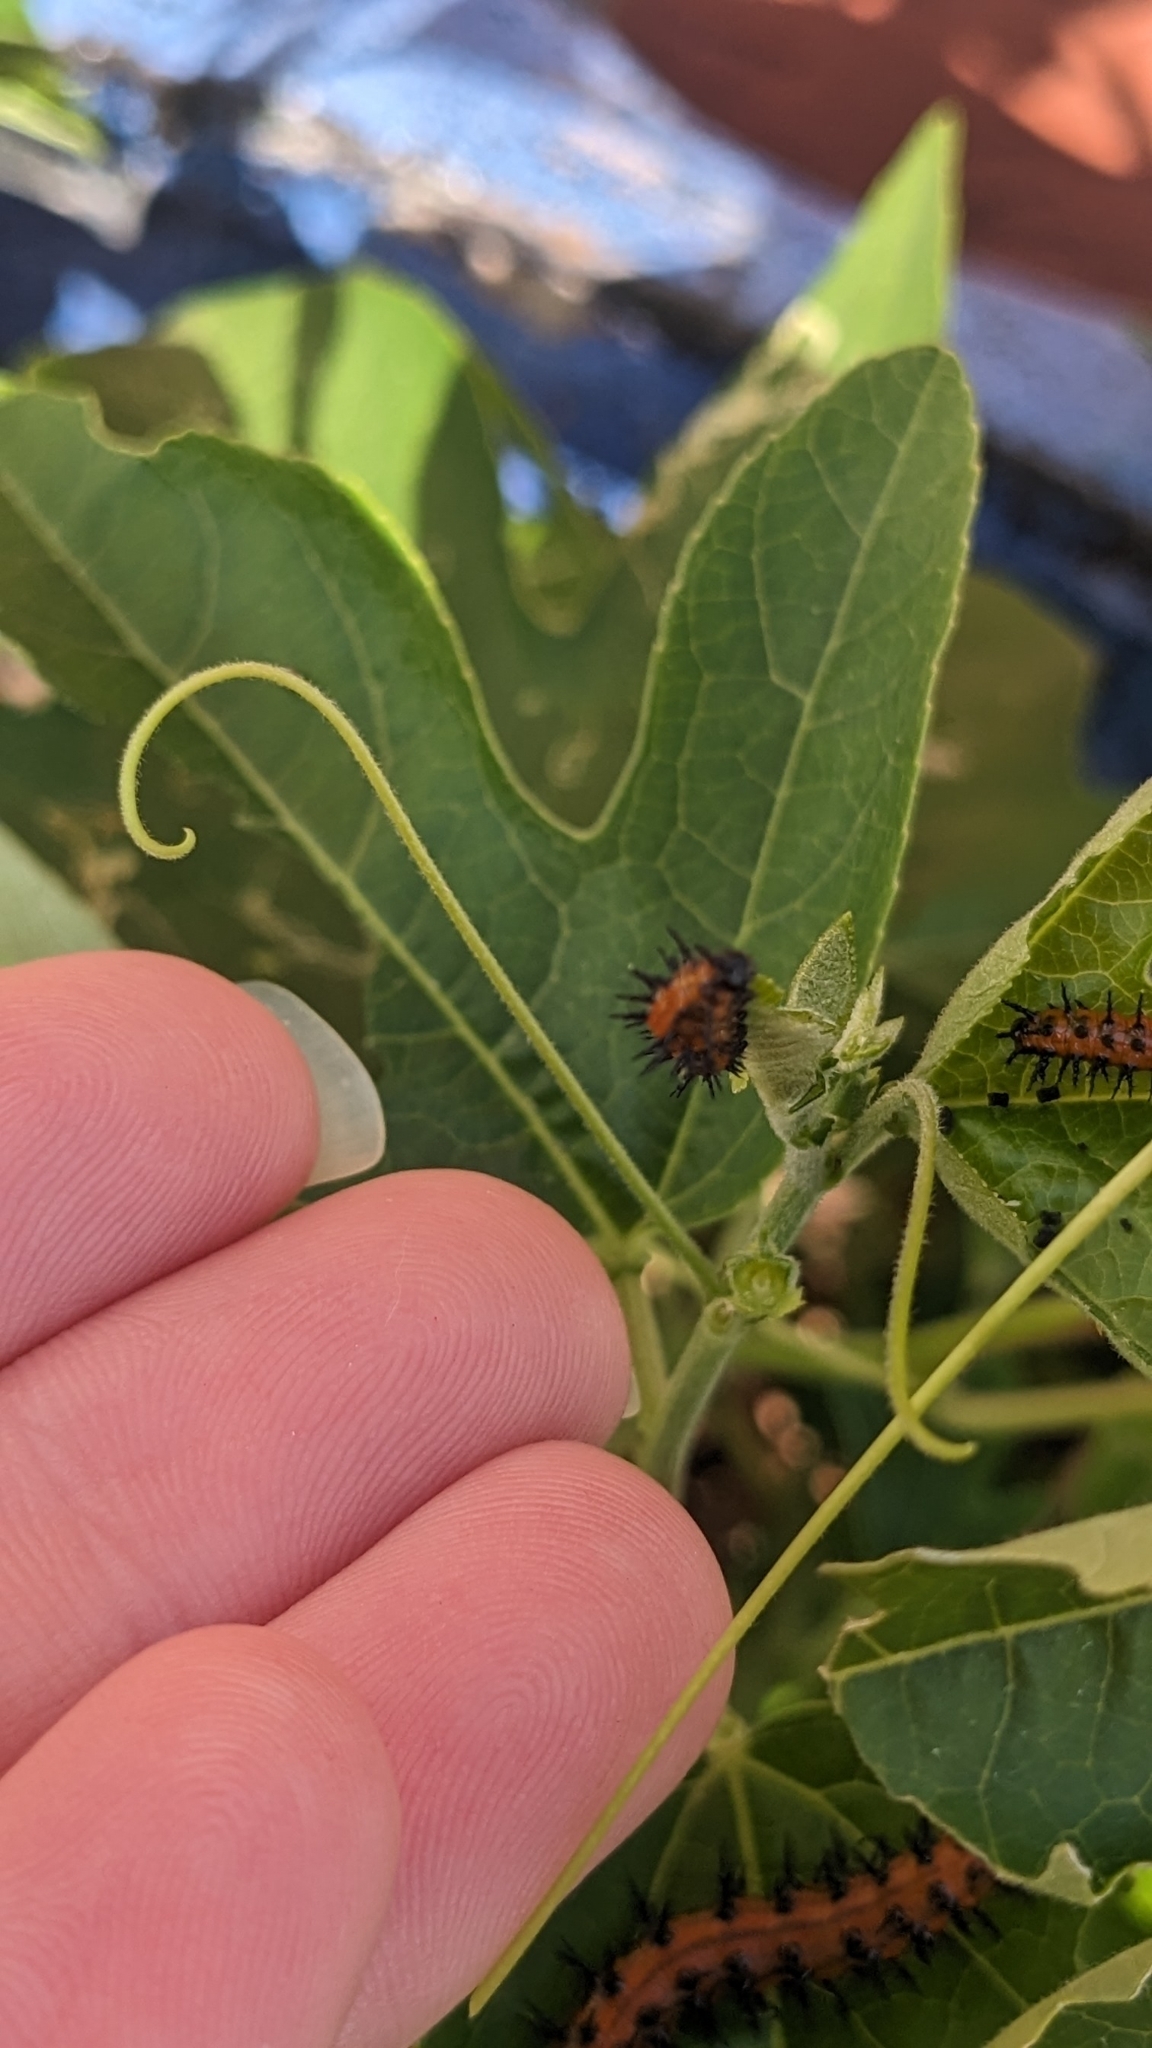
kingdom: Animalia
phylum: Arthropoda
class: Insecta
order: Lepidoptera
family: Nymphalidae
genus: Dione
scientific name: Dione vanillae
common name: Gulf fritillary
